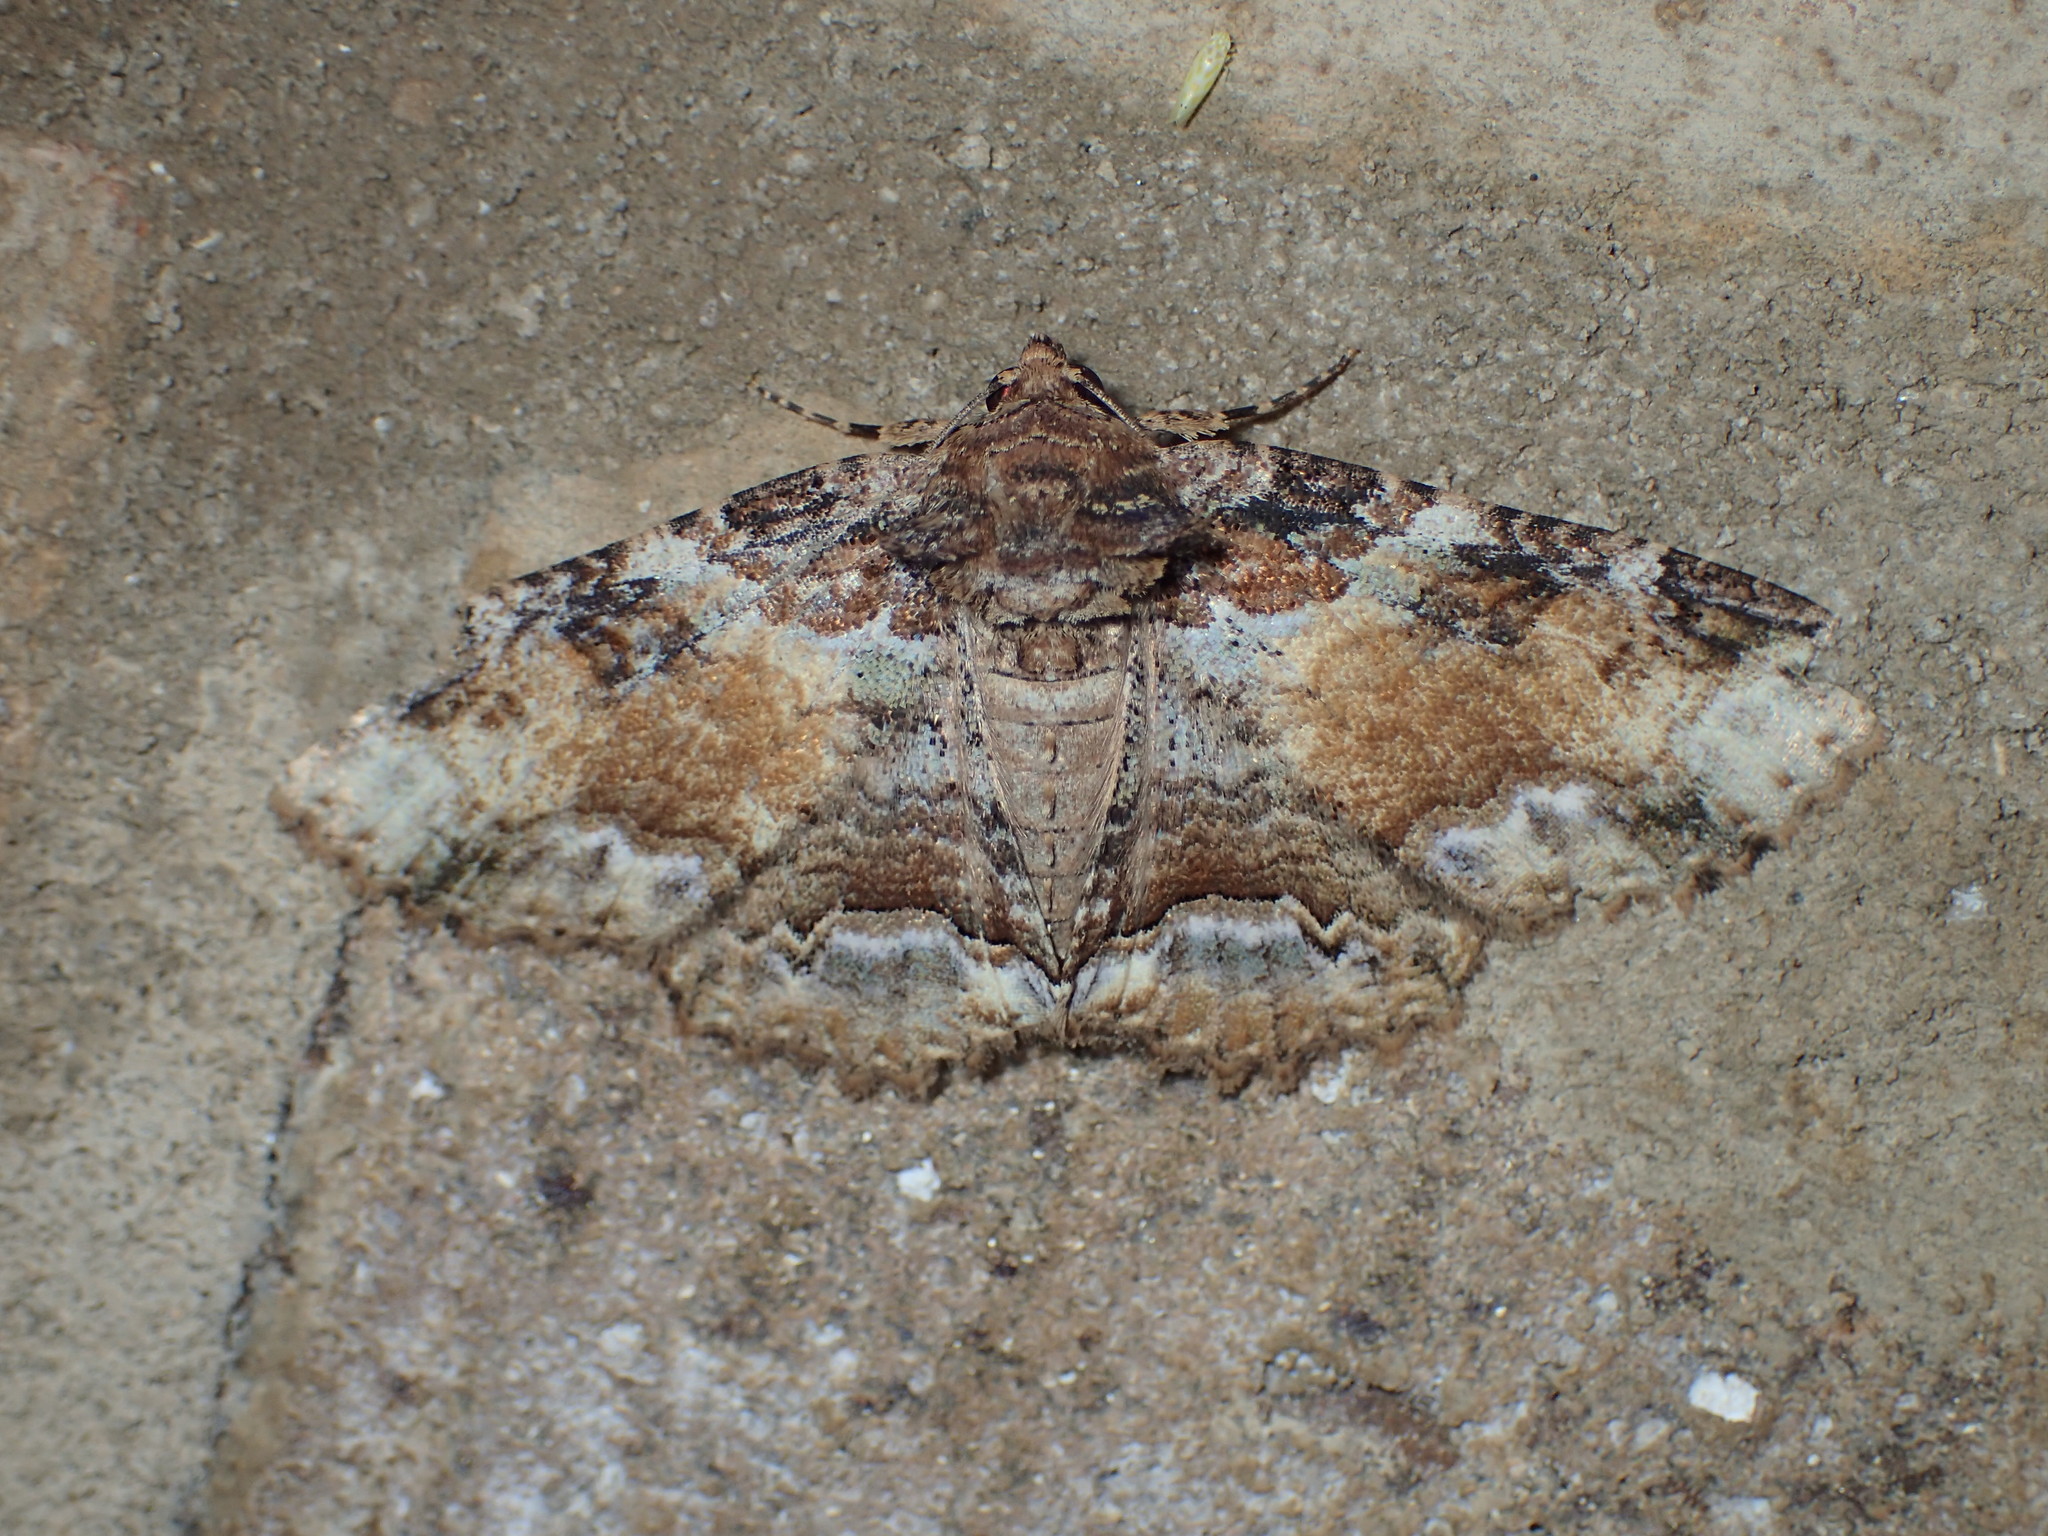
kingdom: Animalia
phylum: Arthropoda
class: Insecta
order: Lepidoptera
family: Erebidae
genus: Zale
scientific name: Zale galbanata
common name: Maple zale
